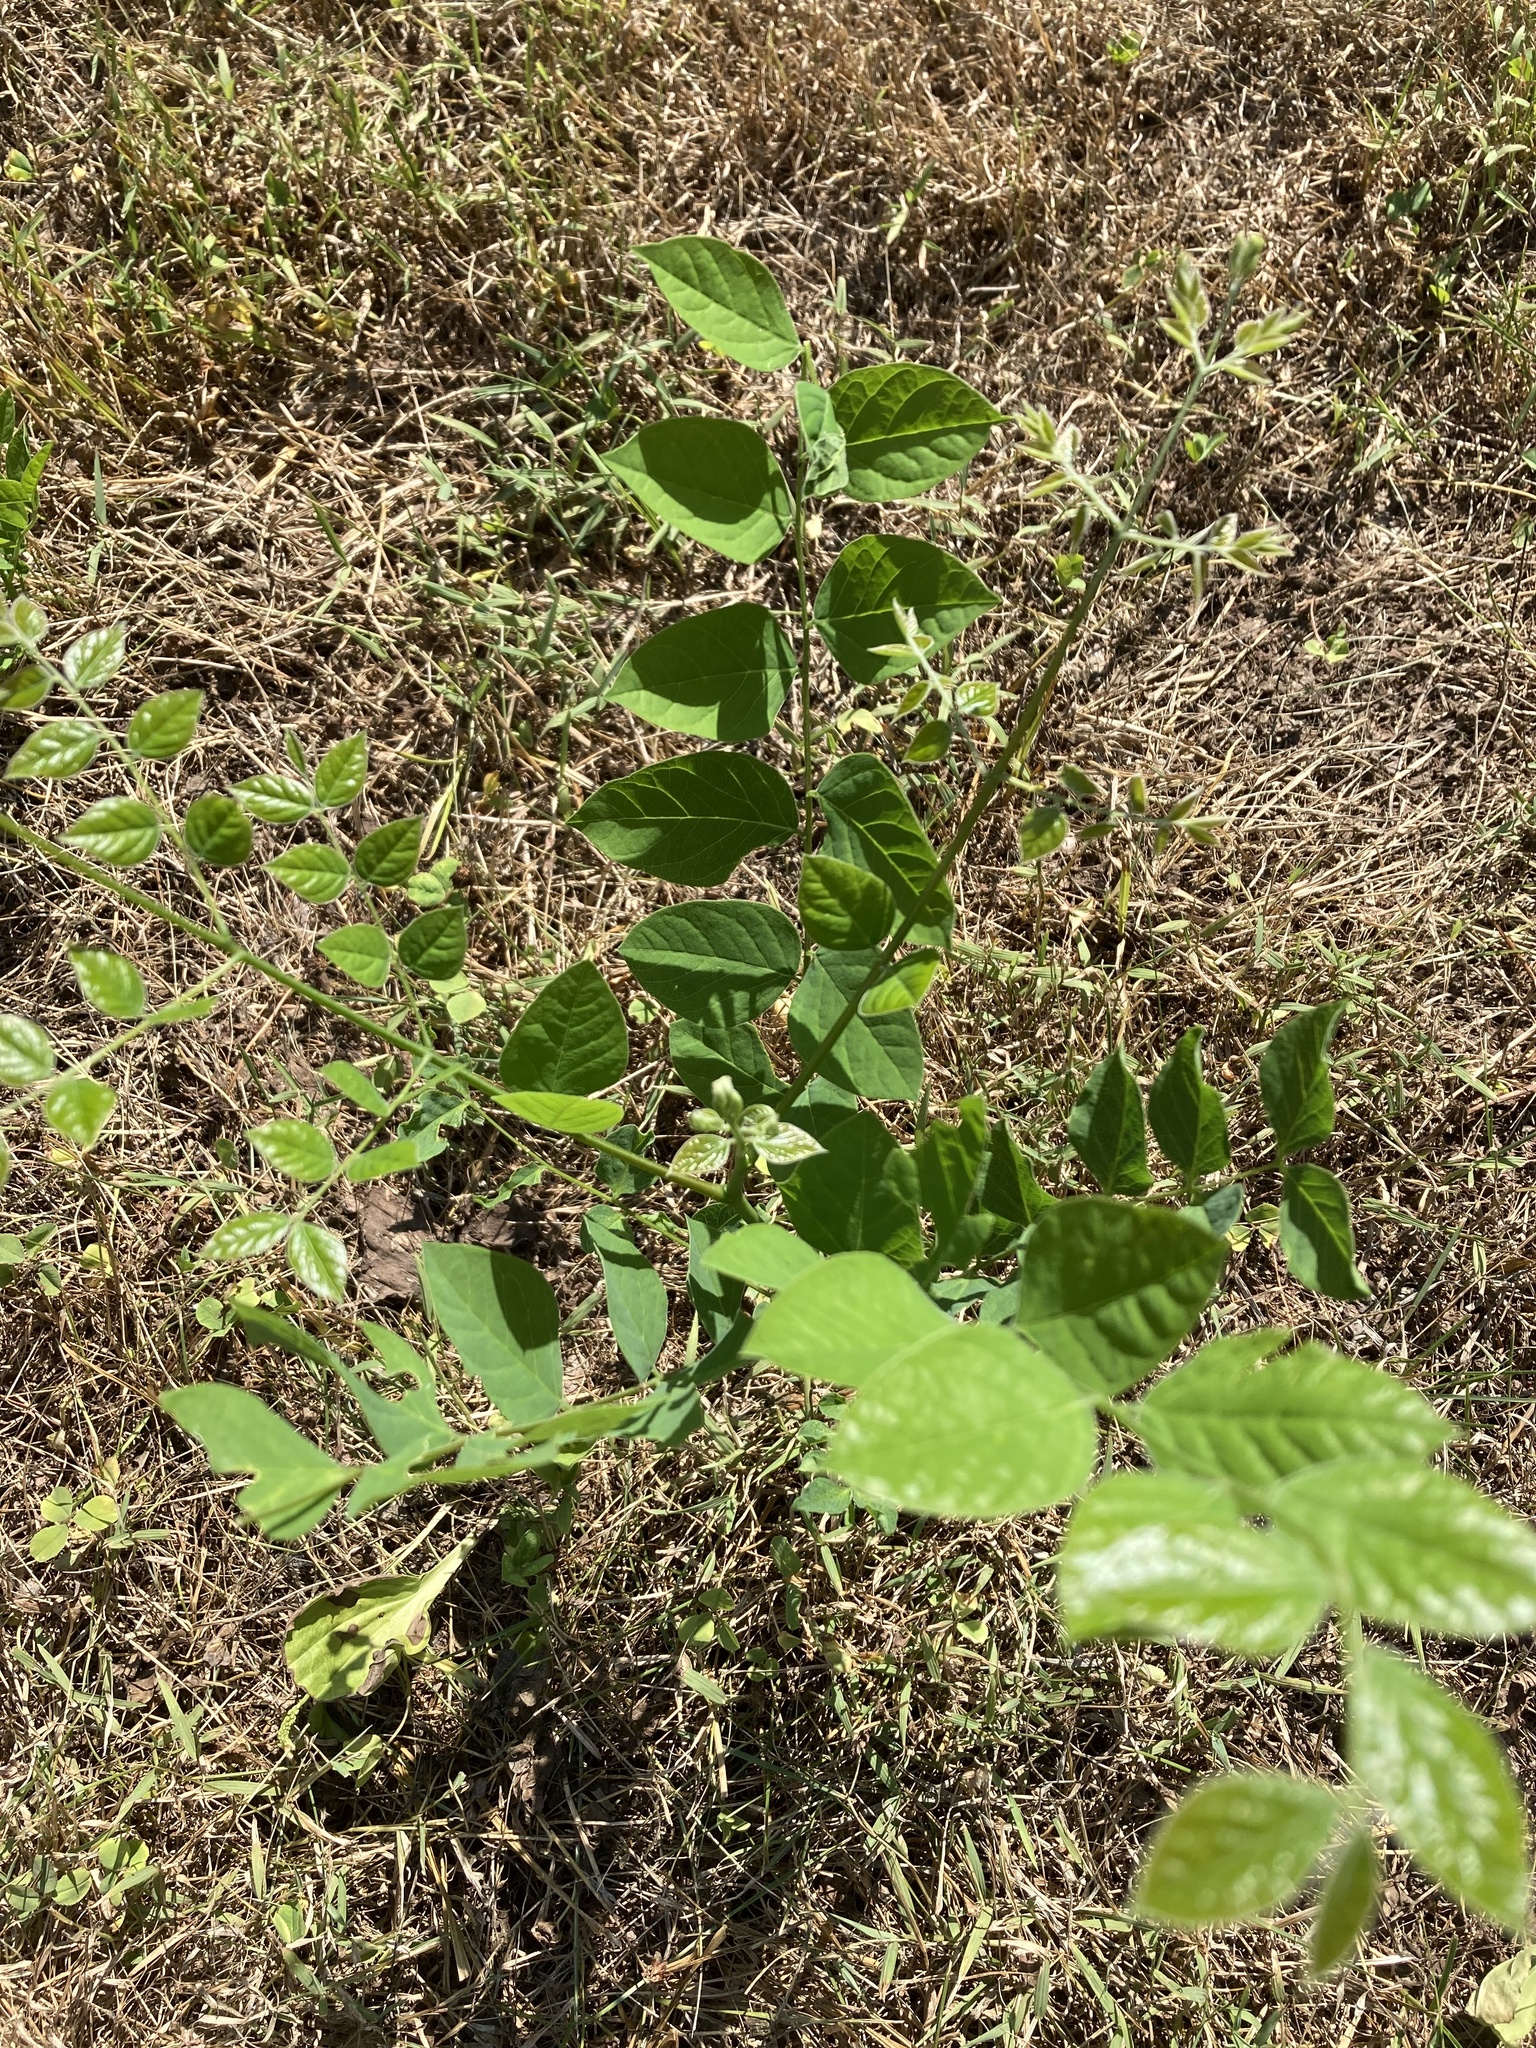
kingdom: Plantae
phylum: Tracheophyta
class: Magnoliopsida
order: Fabales
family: Fabaceae
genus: Gymnocladus
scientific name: Gymnocladus dioicus
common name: Kentucky coffee-tree
